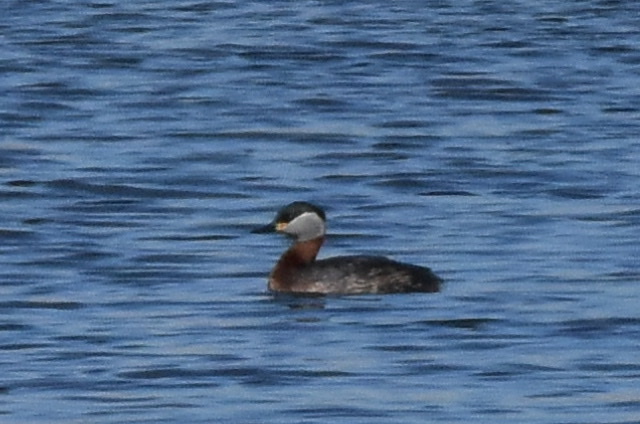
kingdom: Animalia
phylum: Chordata
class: Aves
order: Podicipediformes
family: Podicipedidae
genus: Podiceps
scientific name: Podiceps grisegena
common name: Red-necked grebe
